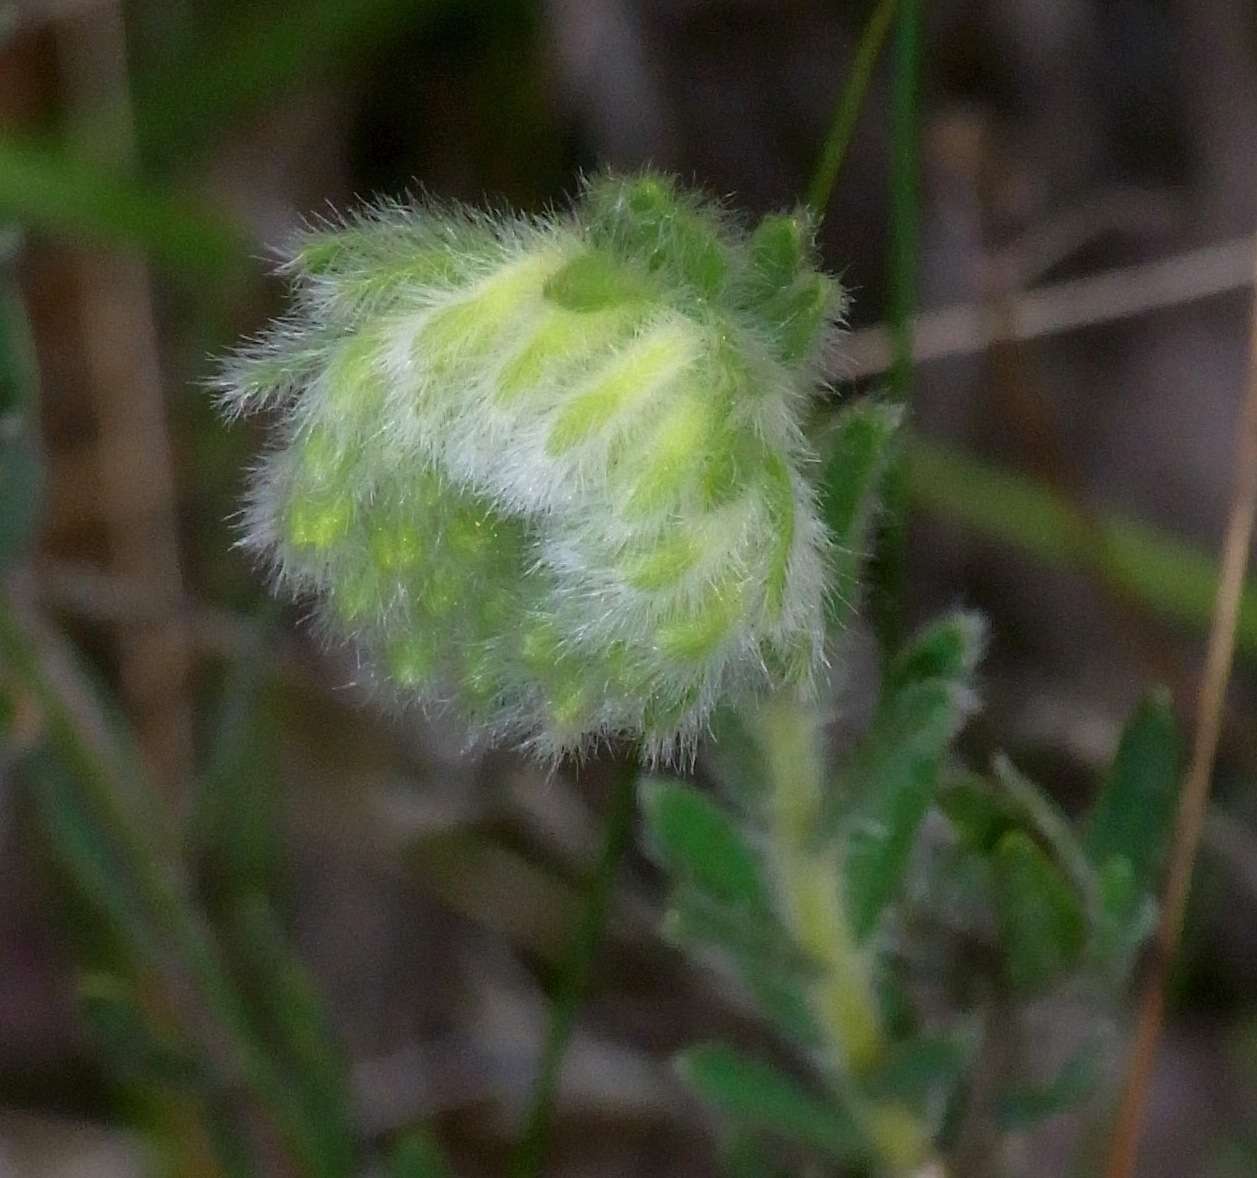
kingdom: Plantae
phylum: Tracheophyta
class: Magnoliopsida
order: Malvales
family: Thymelaeaceae
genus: Pimelea
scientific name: Pimelea octophylla
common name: Woolly riceflower
